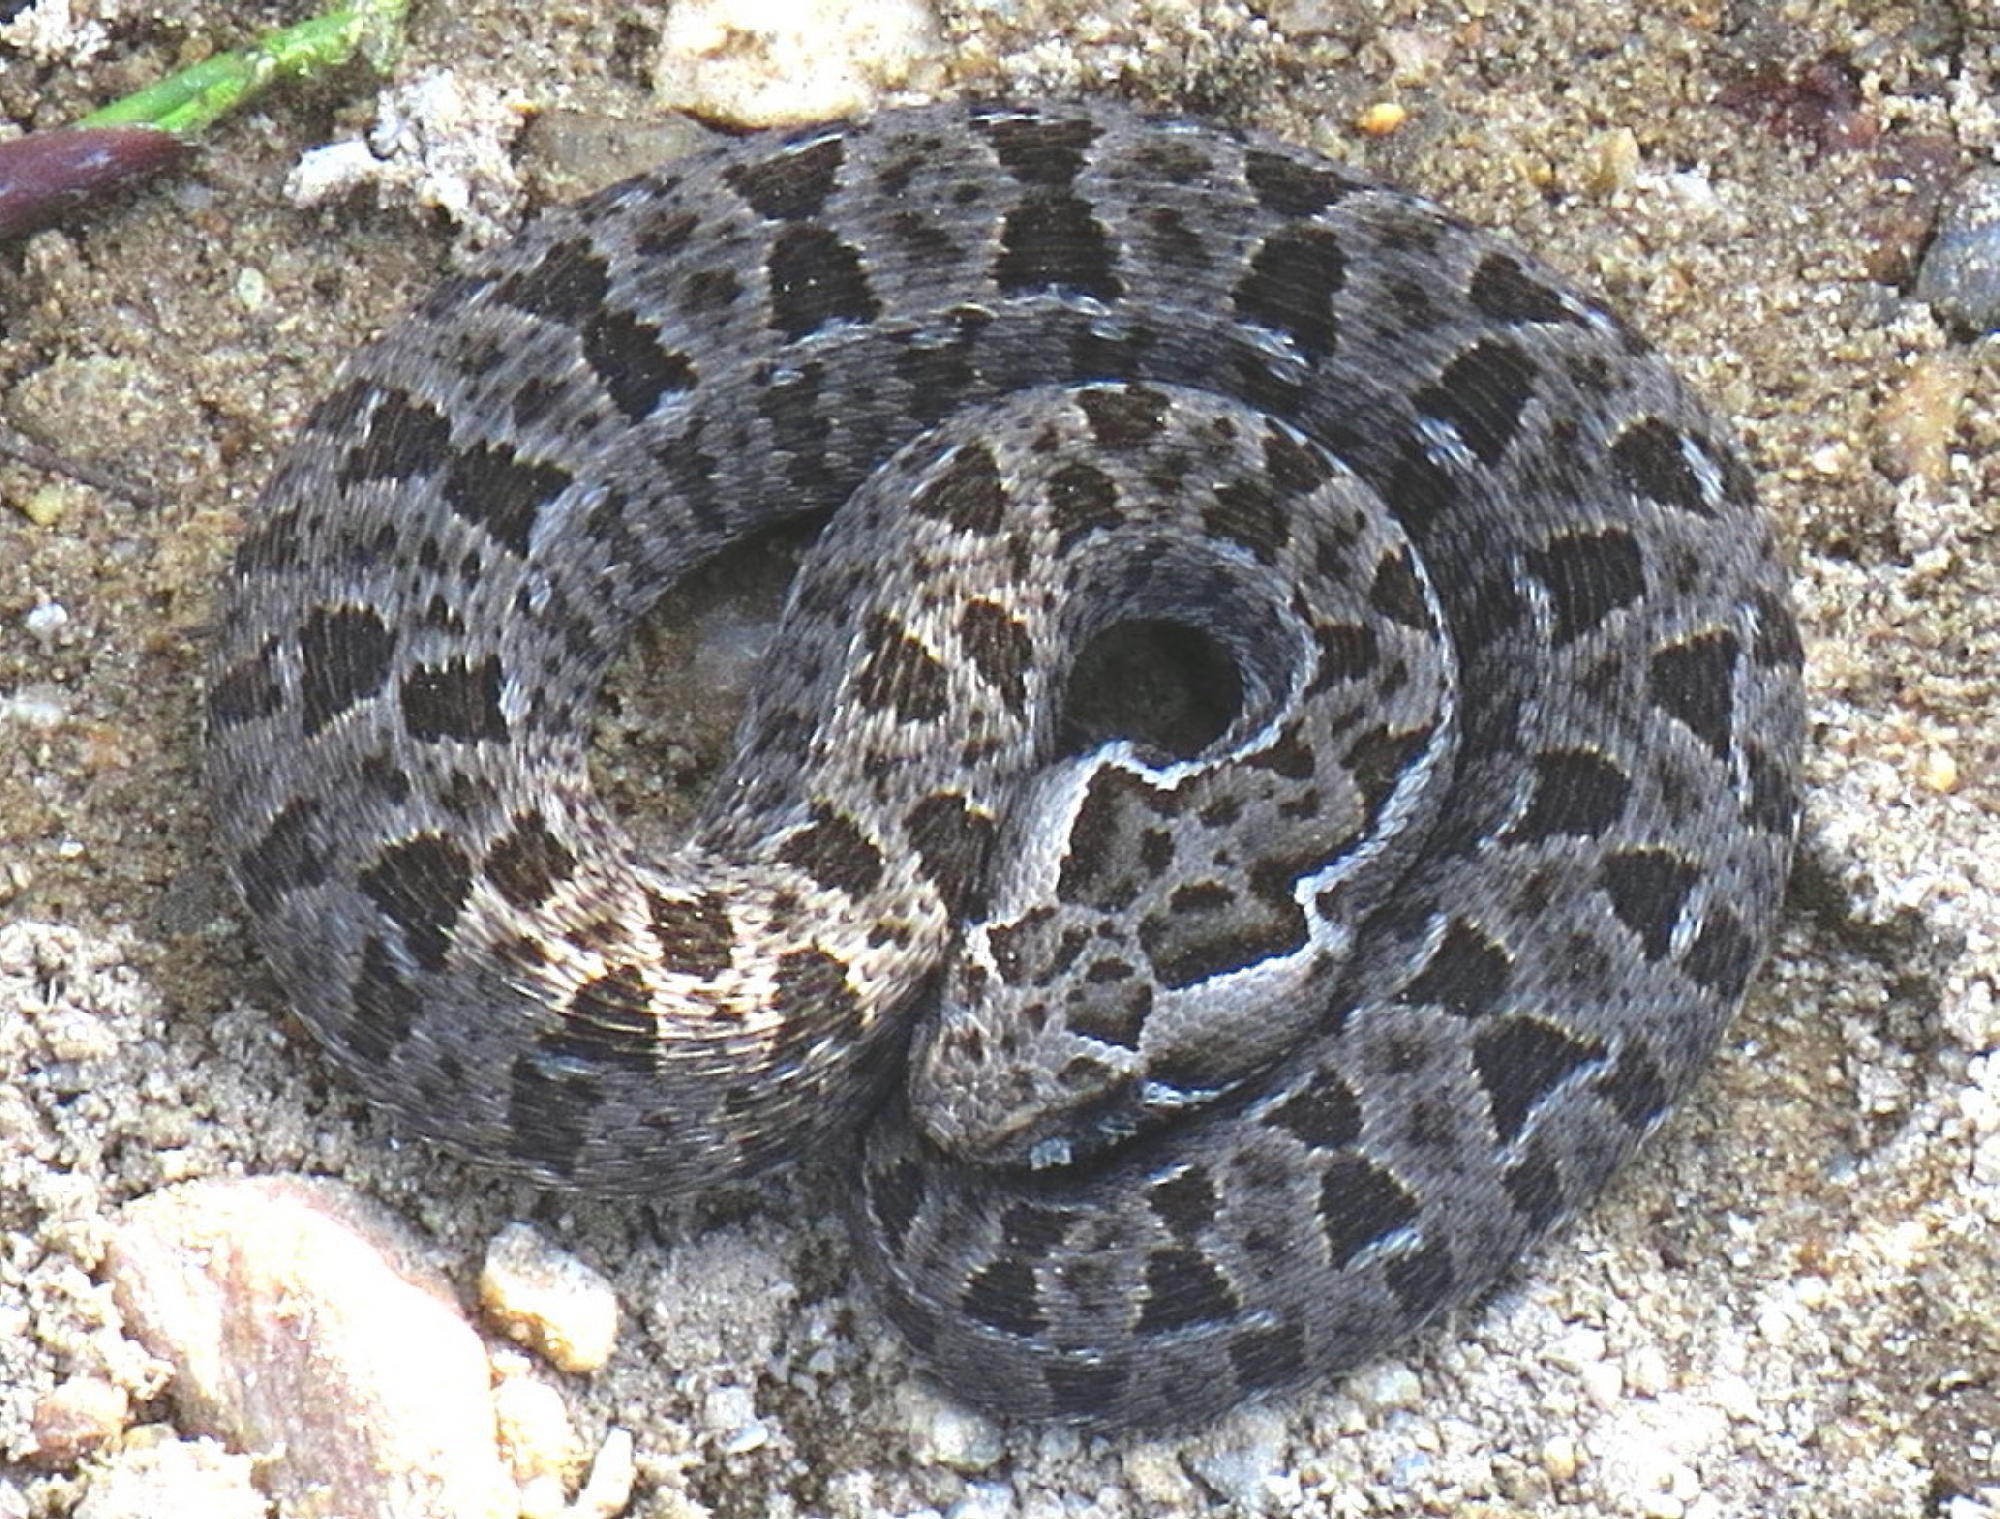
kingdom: Animalia
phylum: Chordata
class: Squamata
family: Viperidae
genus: Bitis
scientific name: Bitis atropos
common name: Mountain adder
